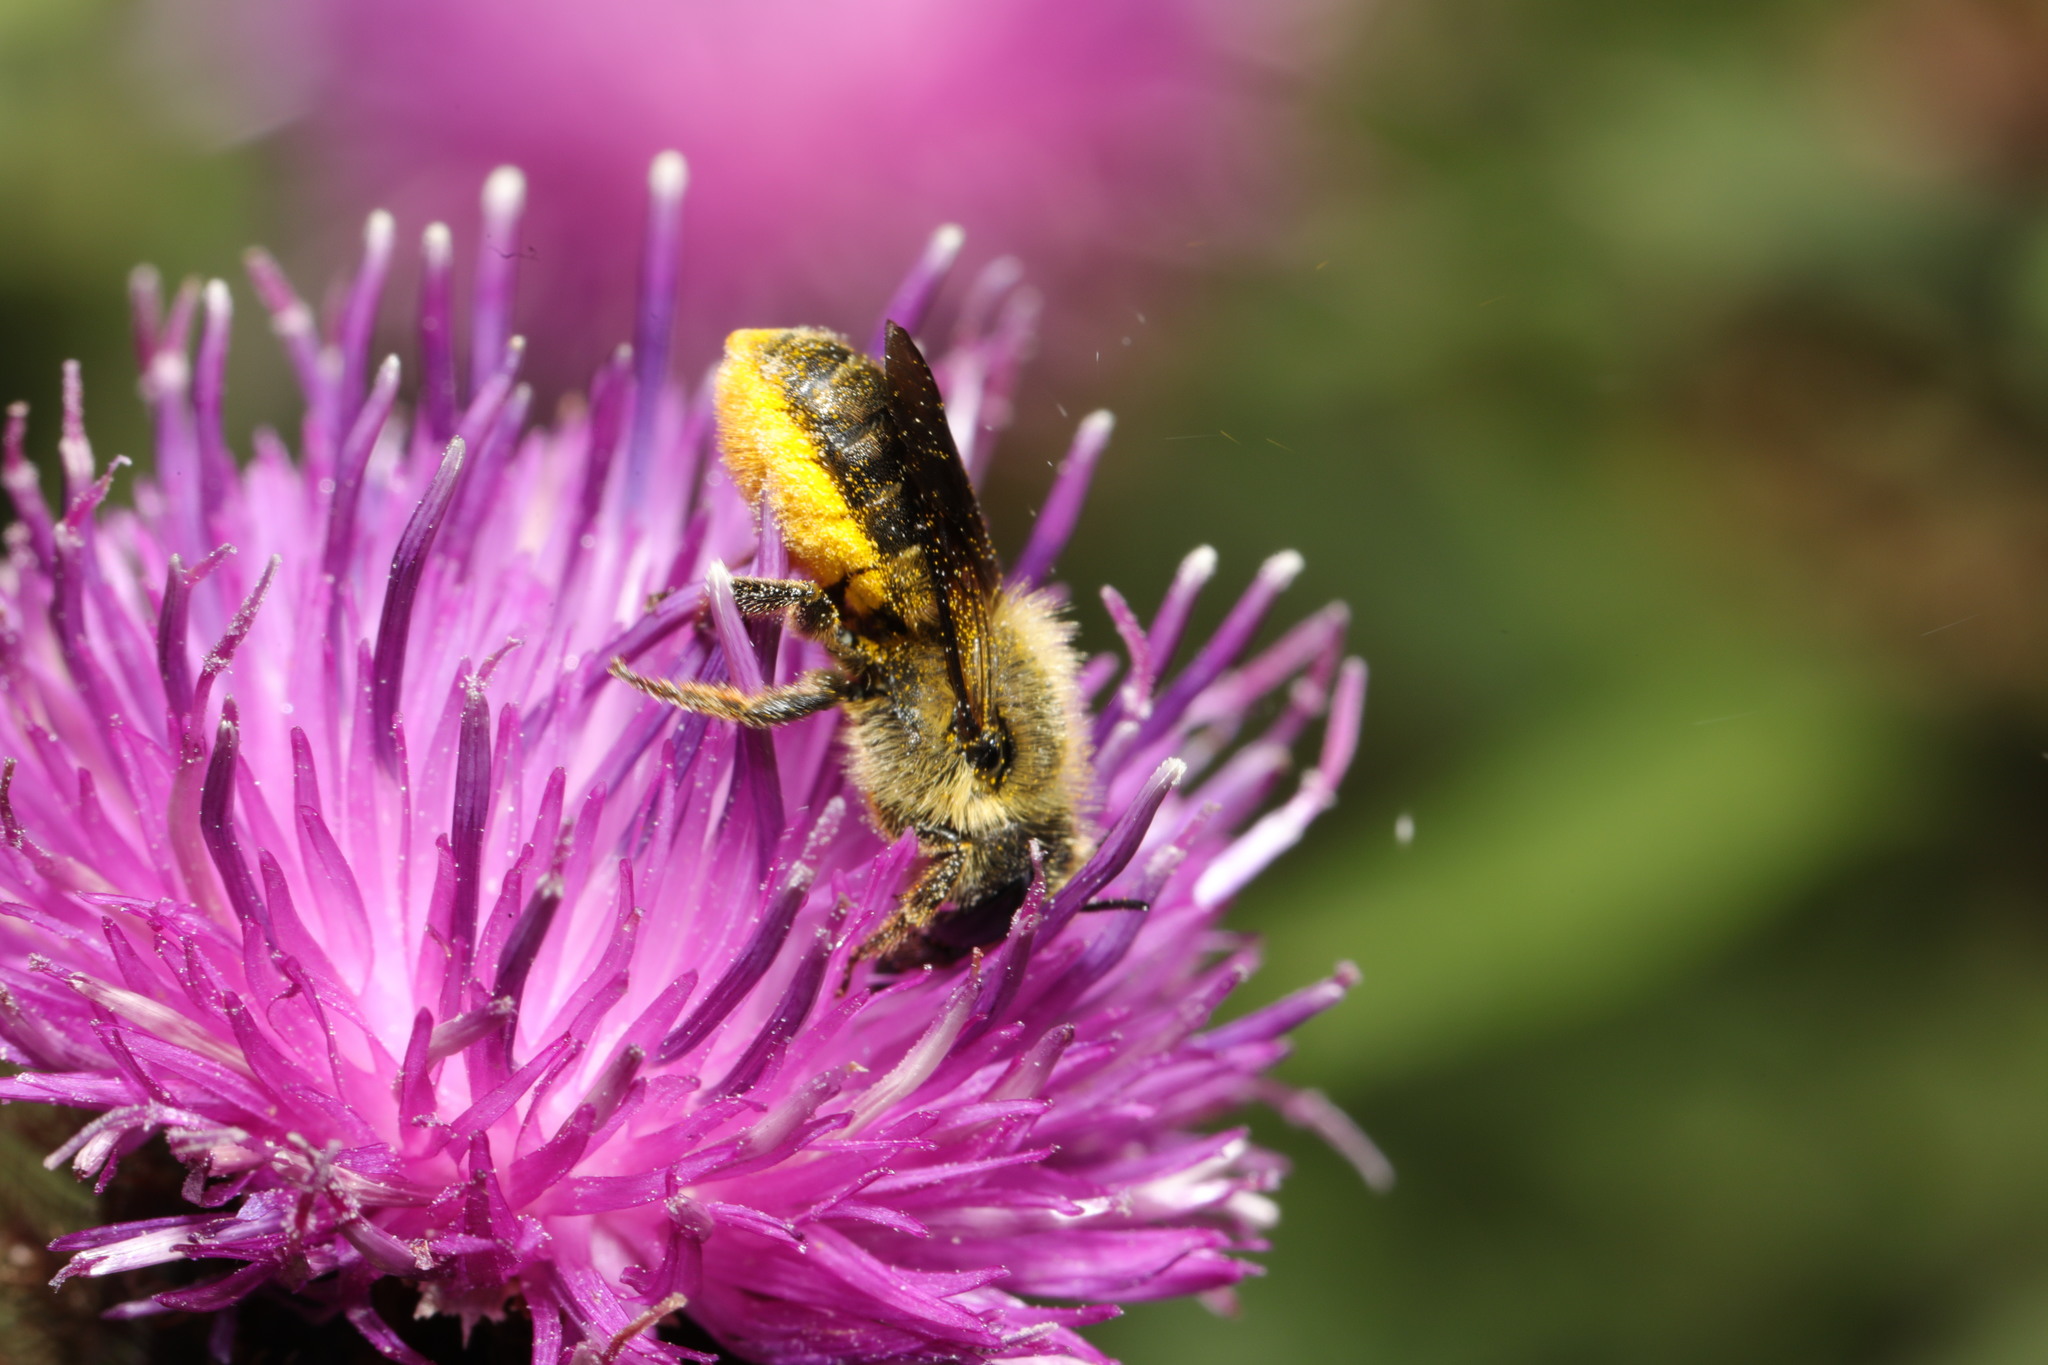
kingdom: Animalia
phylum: Arthropoda
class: Insecta
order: Hymenoptera
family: Megachilidae
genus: Osmia
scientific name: Osmia leaiana
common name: Orange-vented mason bee
